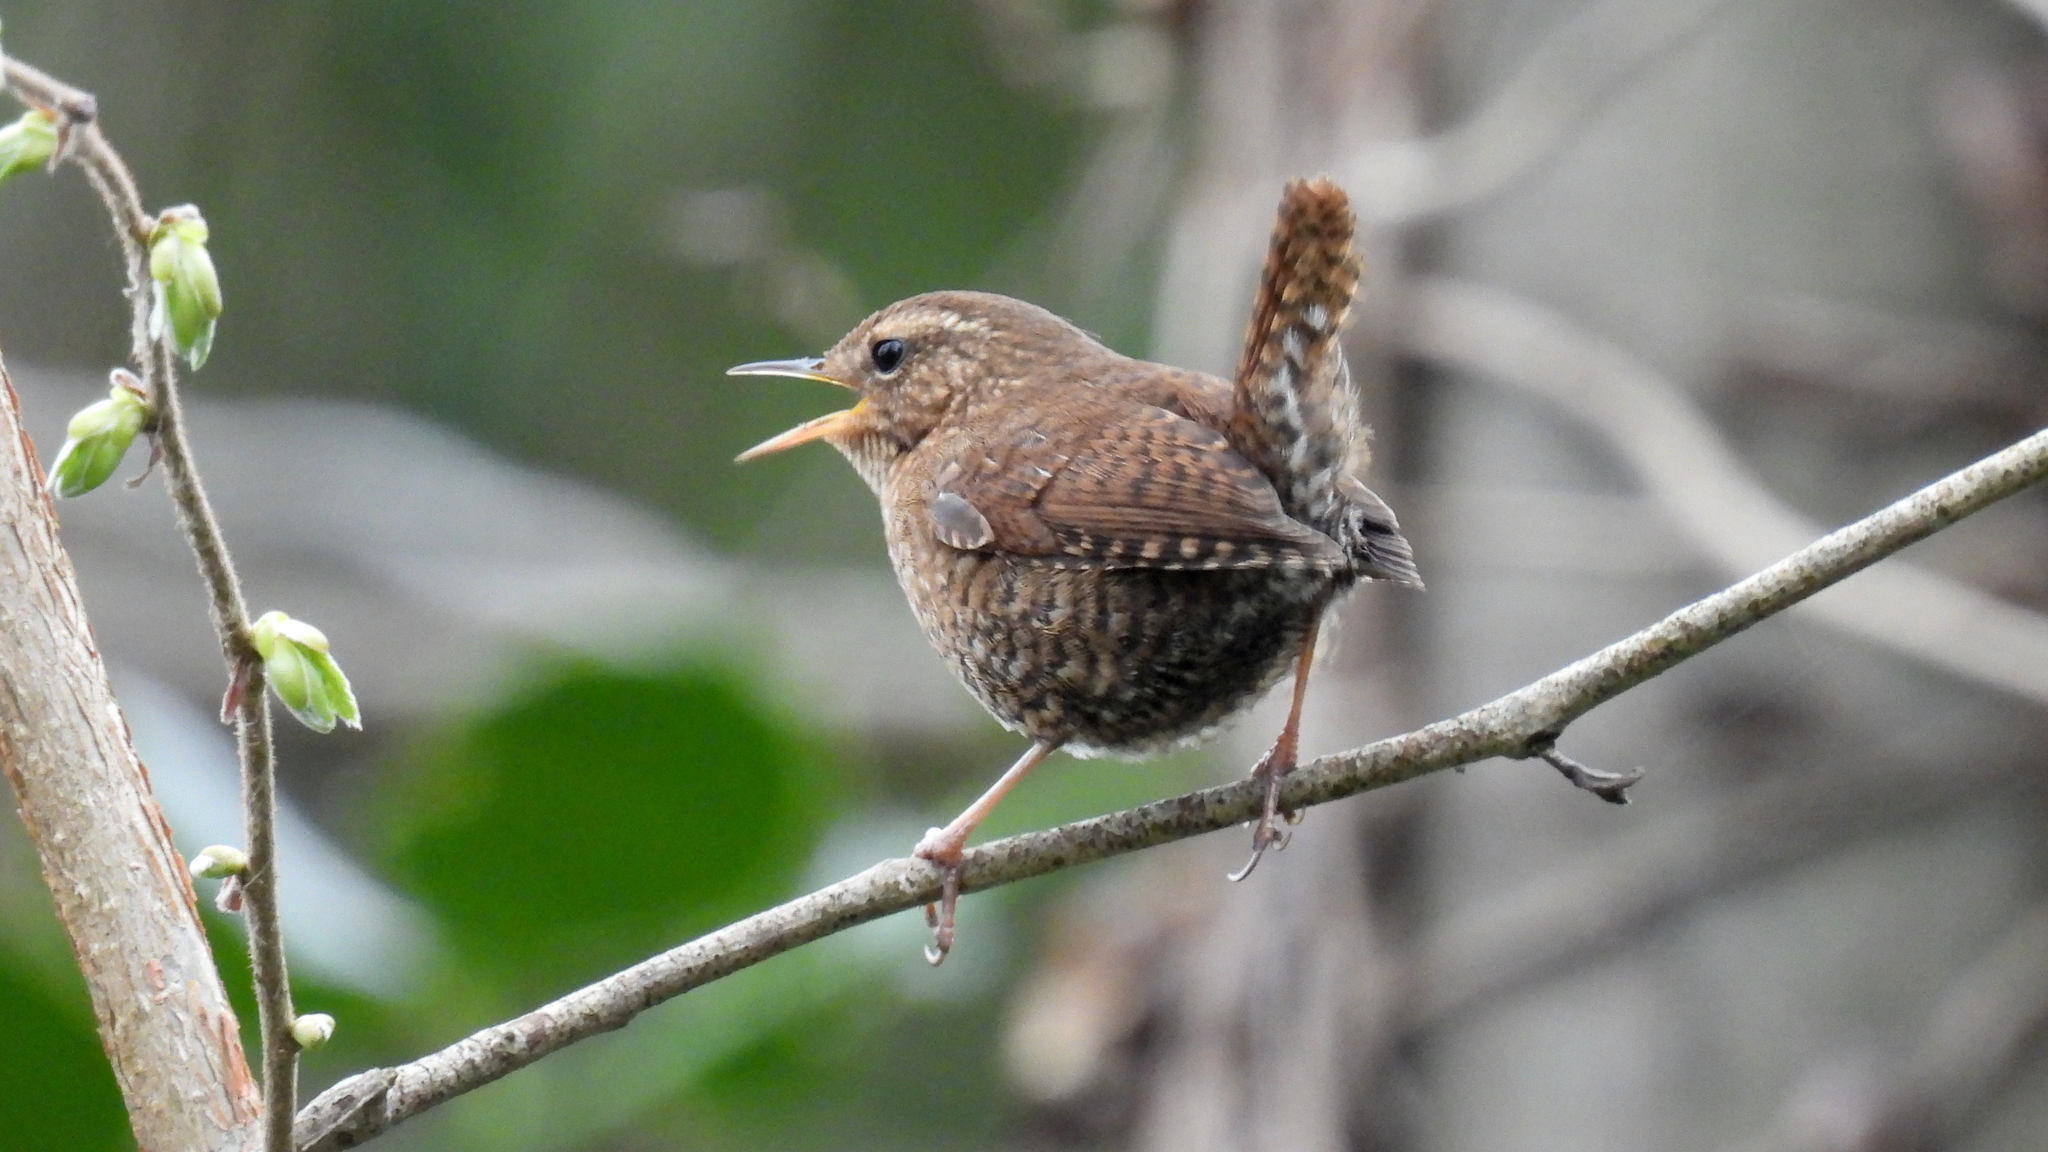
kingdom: Animalia
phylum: Chordata
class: Aves
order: Passeriformes
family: Troglodytidae
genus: Troglodytes
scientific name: Troglodytes pacificus
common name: Pacific wren
